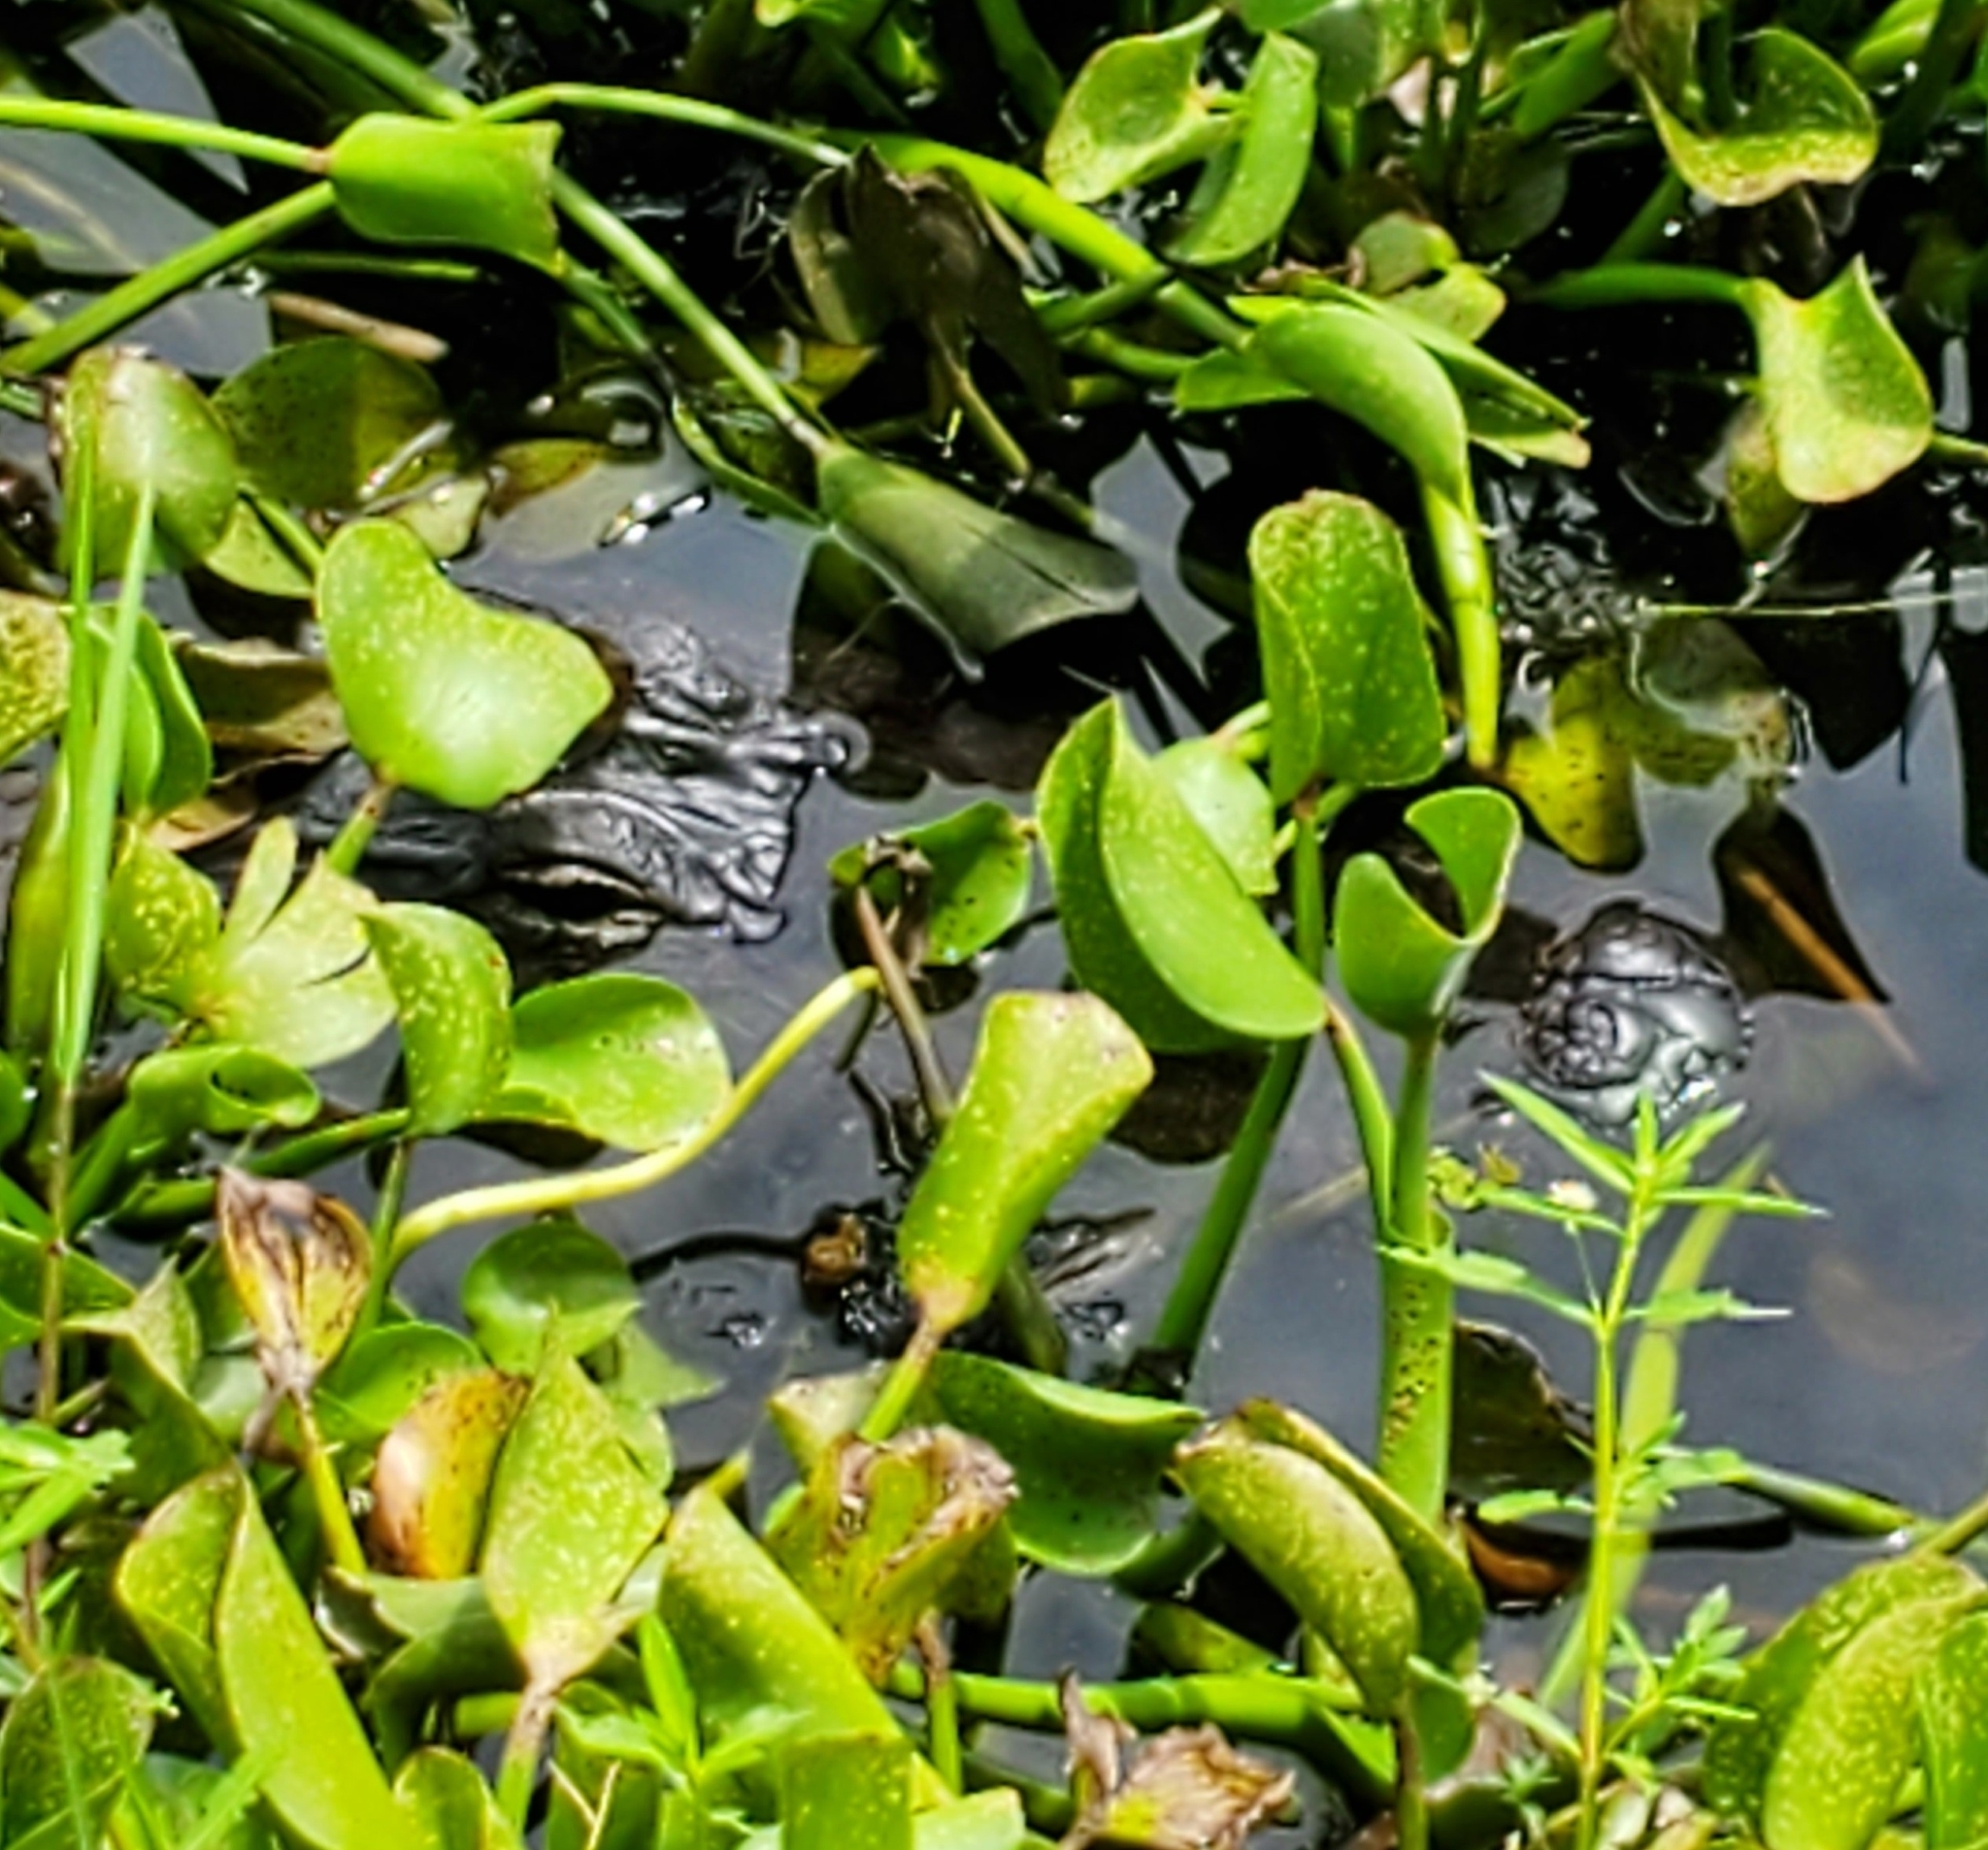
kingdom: Animalia
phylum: Chordata
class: Crocodylia
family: Alligatoridae
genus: Alligator
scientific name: Alligator mississippiensis
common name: American alligator
